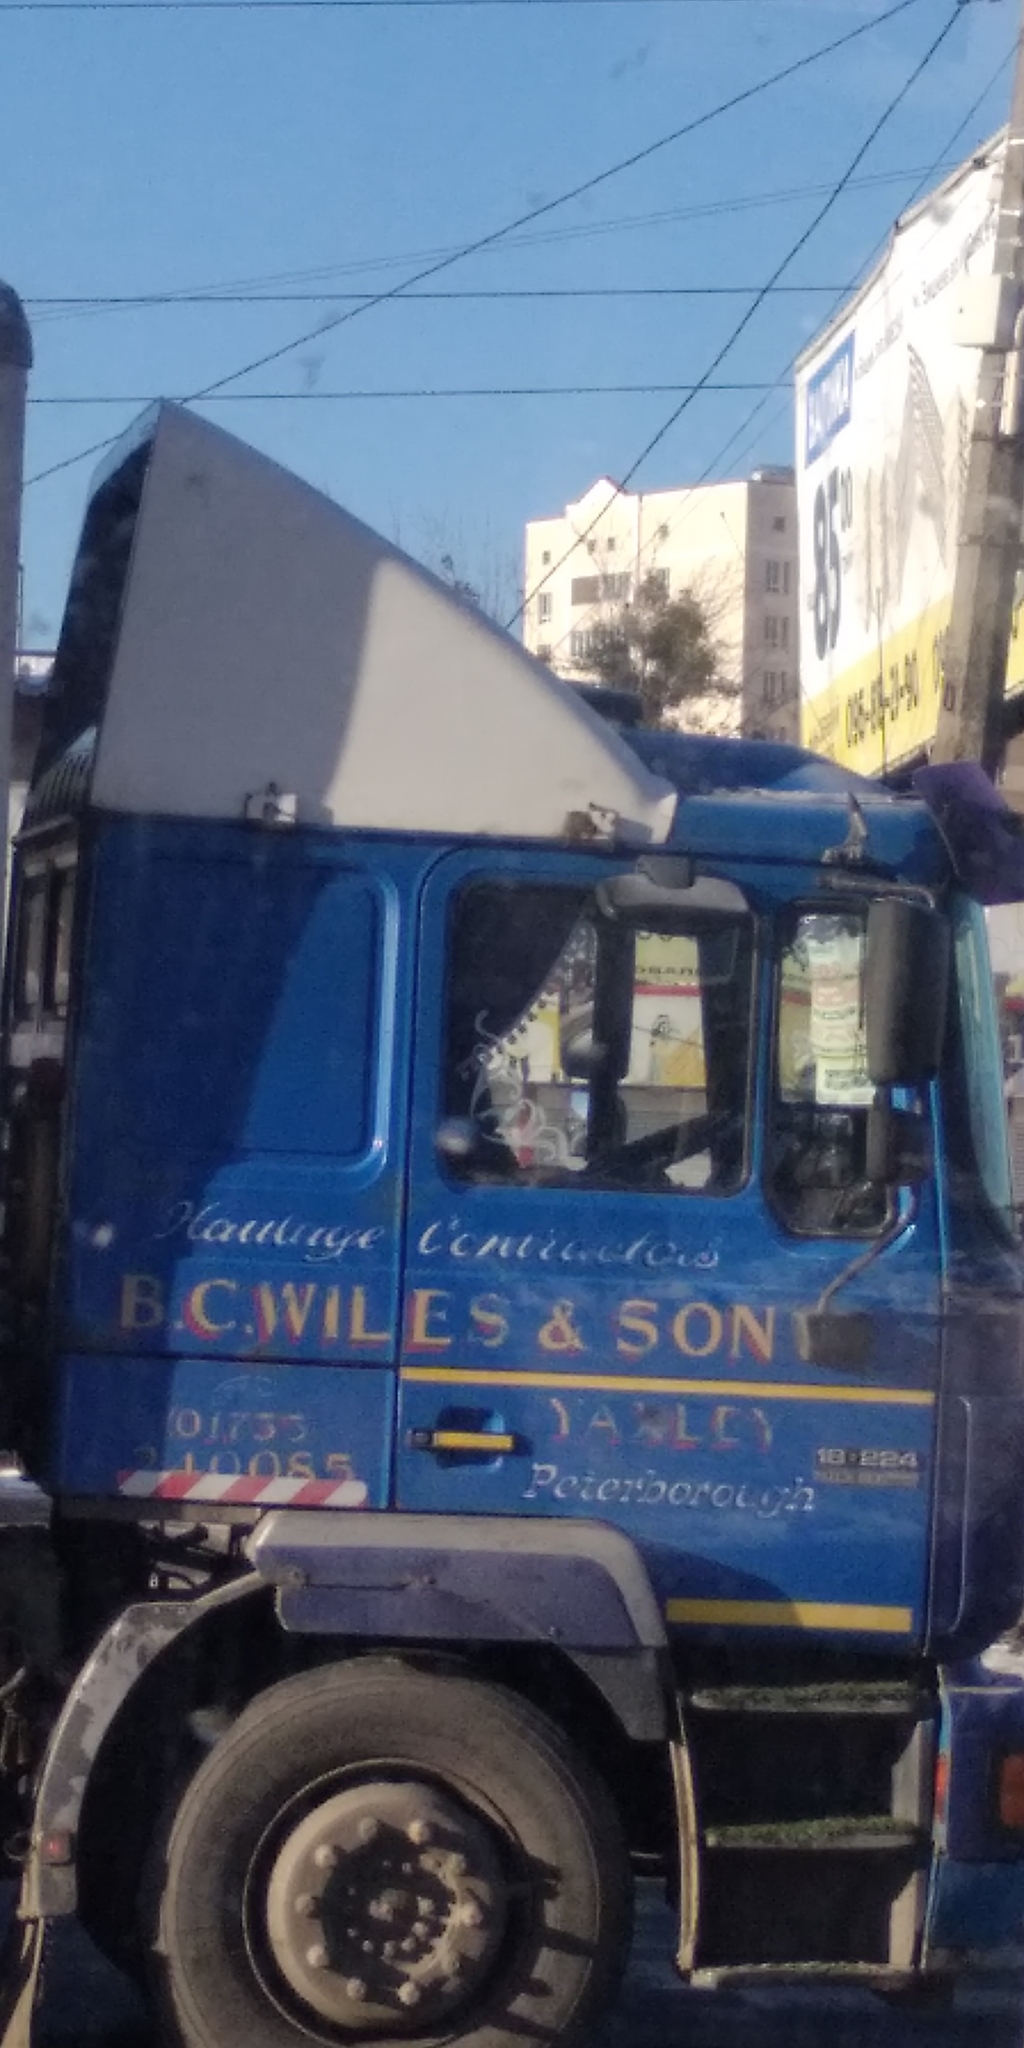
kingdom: Plantae
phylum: Tracheophyta
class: Magnoliopsida
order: Santalales
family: Viscaceae
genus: Viscum
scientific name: Viscum album
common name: Mistletoe
